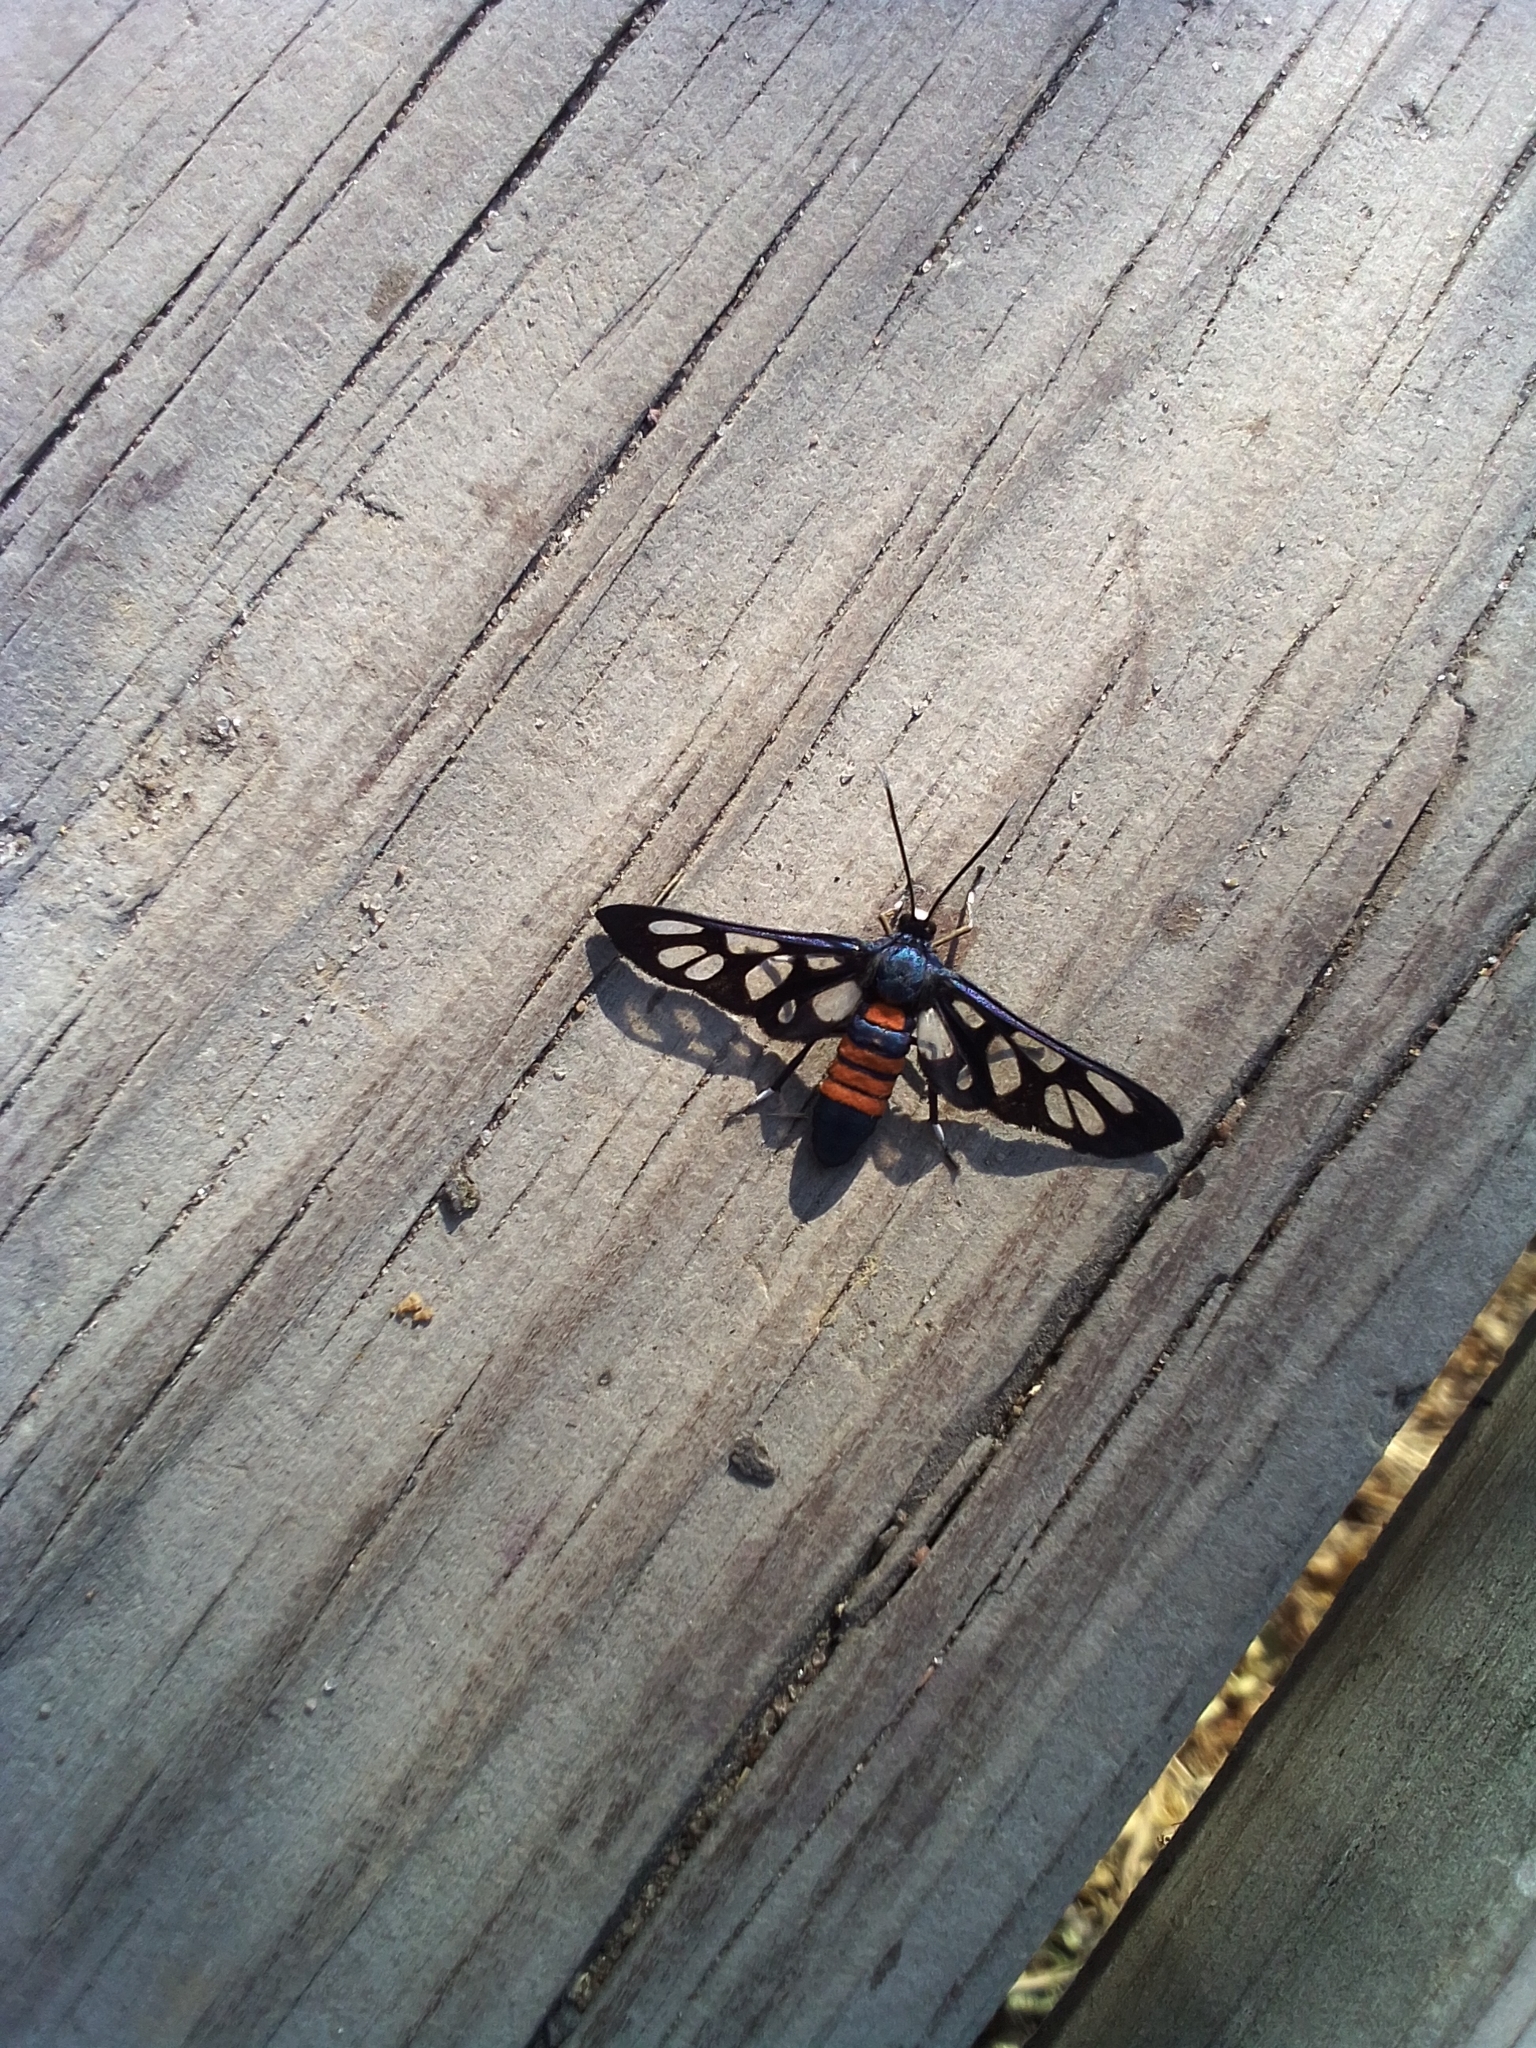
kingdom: Animalia
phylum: Arthropoda
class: Insecta
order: Lepidoptera
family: Erebidae
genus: Amata
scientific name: Amata cerbera
